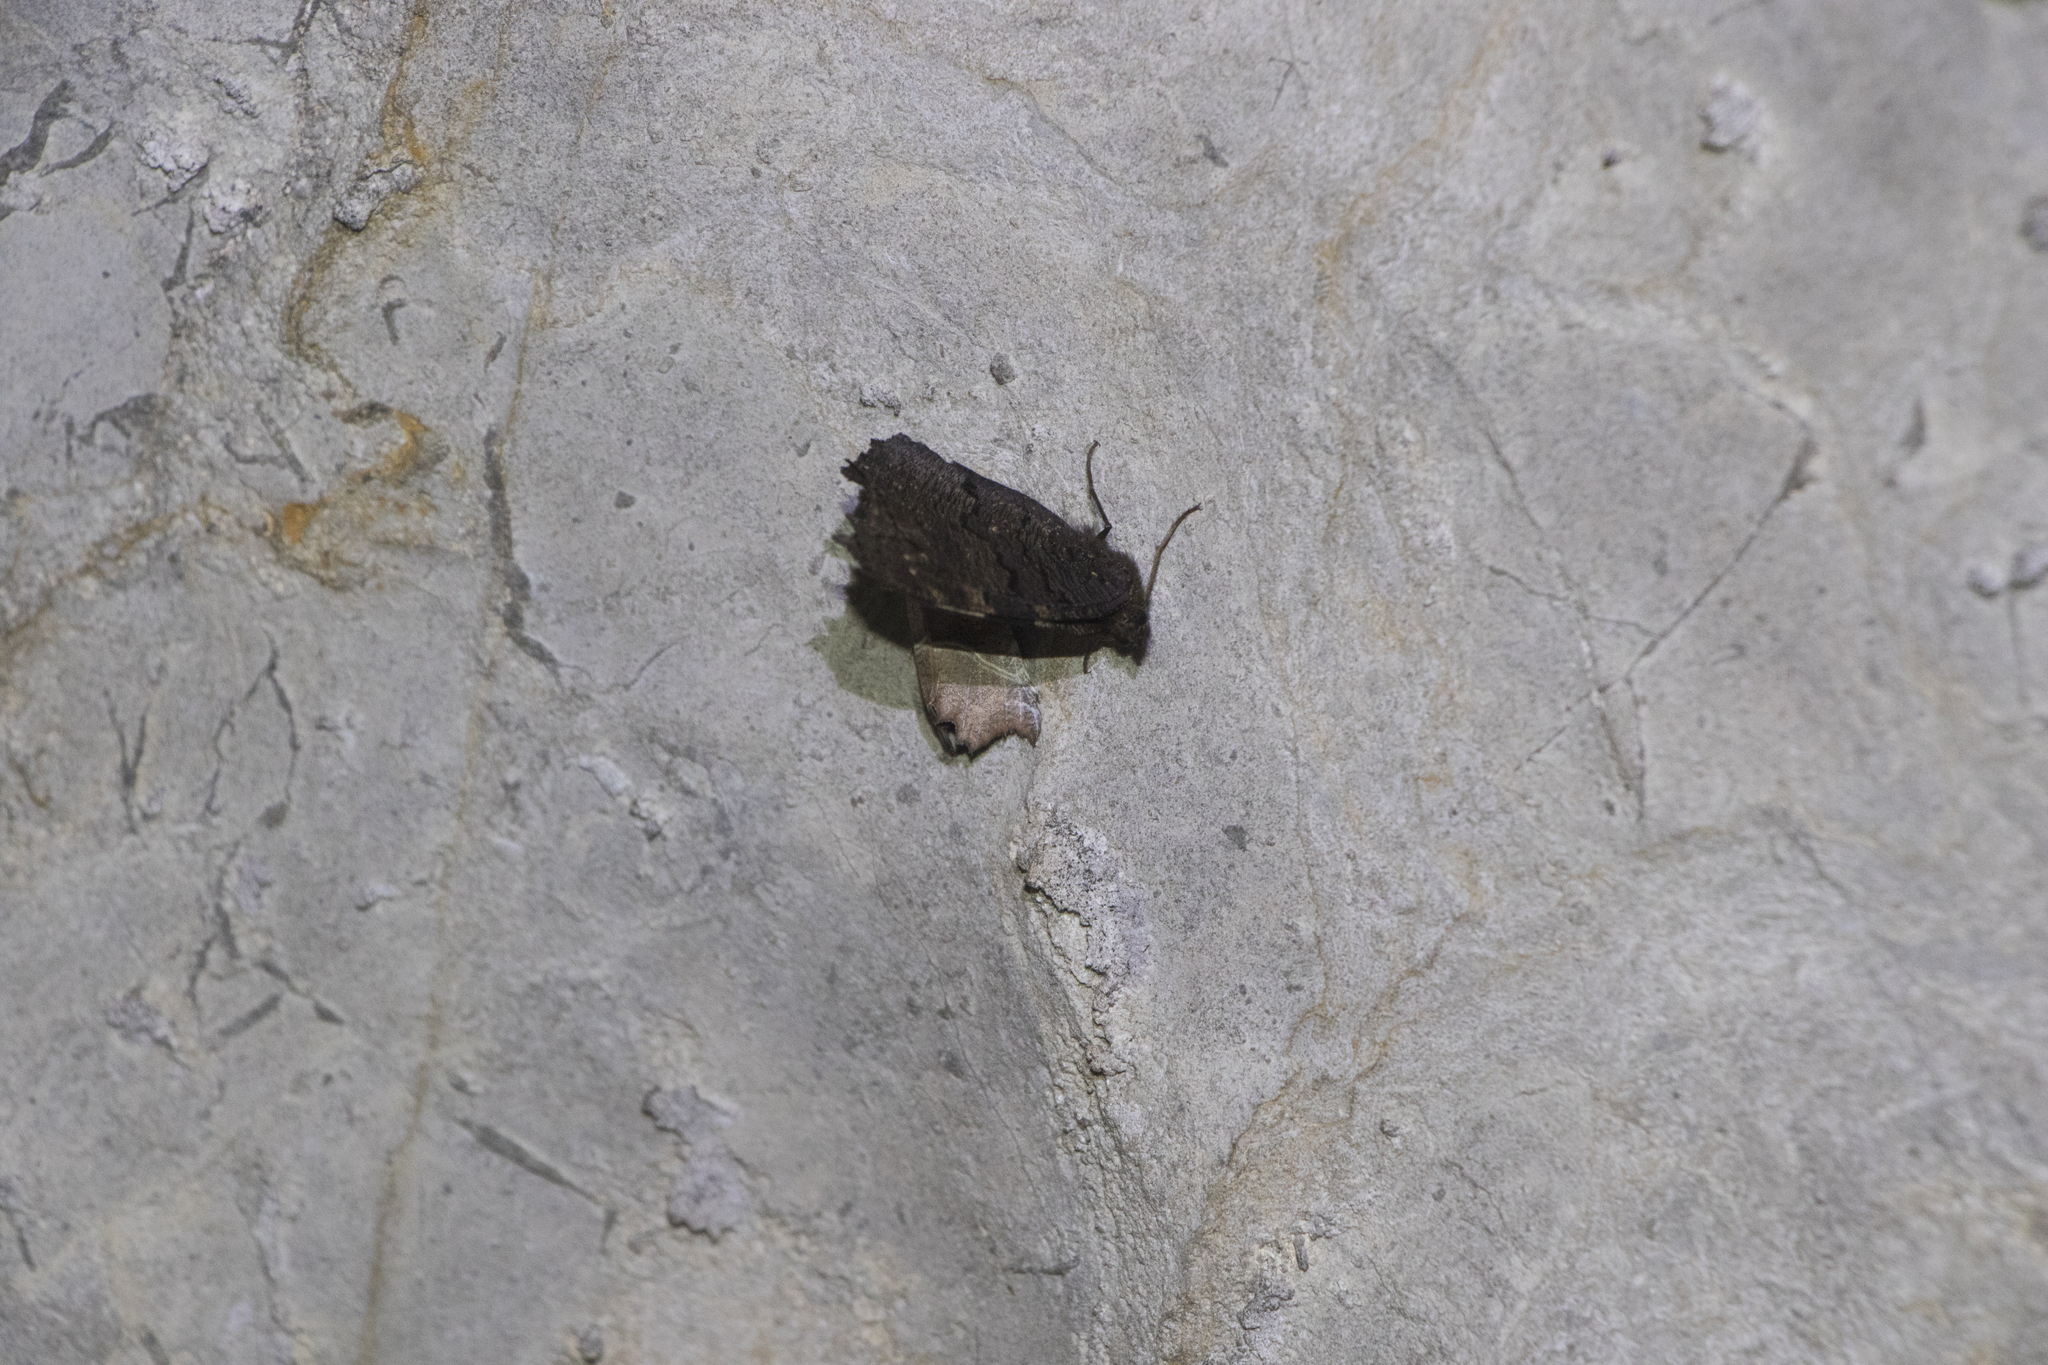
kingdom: Animalia
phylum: Arthropoda
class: Insecta
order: Lepidoptera
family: Nymphalidae
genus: Aglais
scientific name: Aglais io
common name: Peacock
